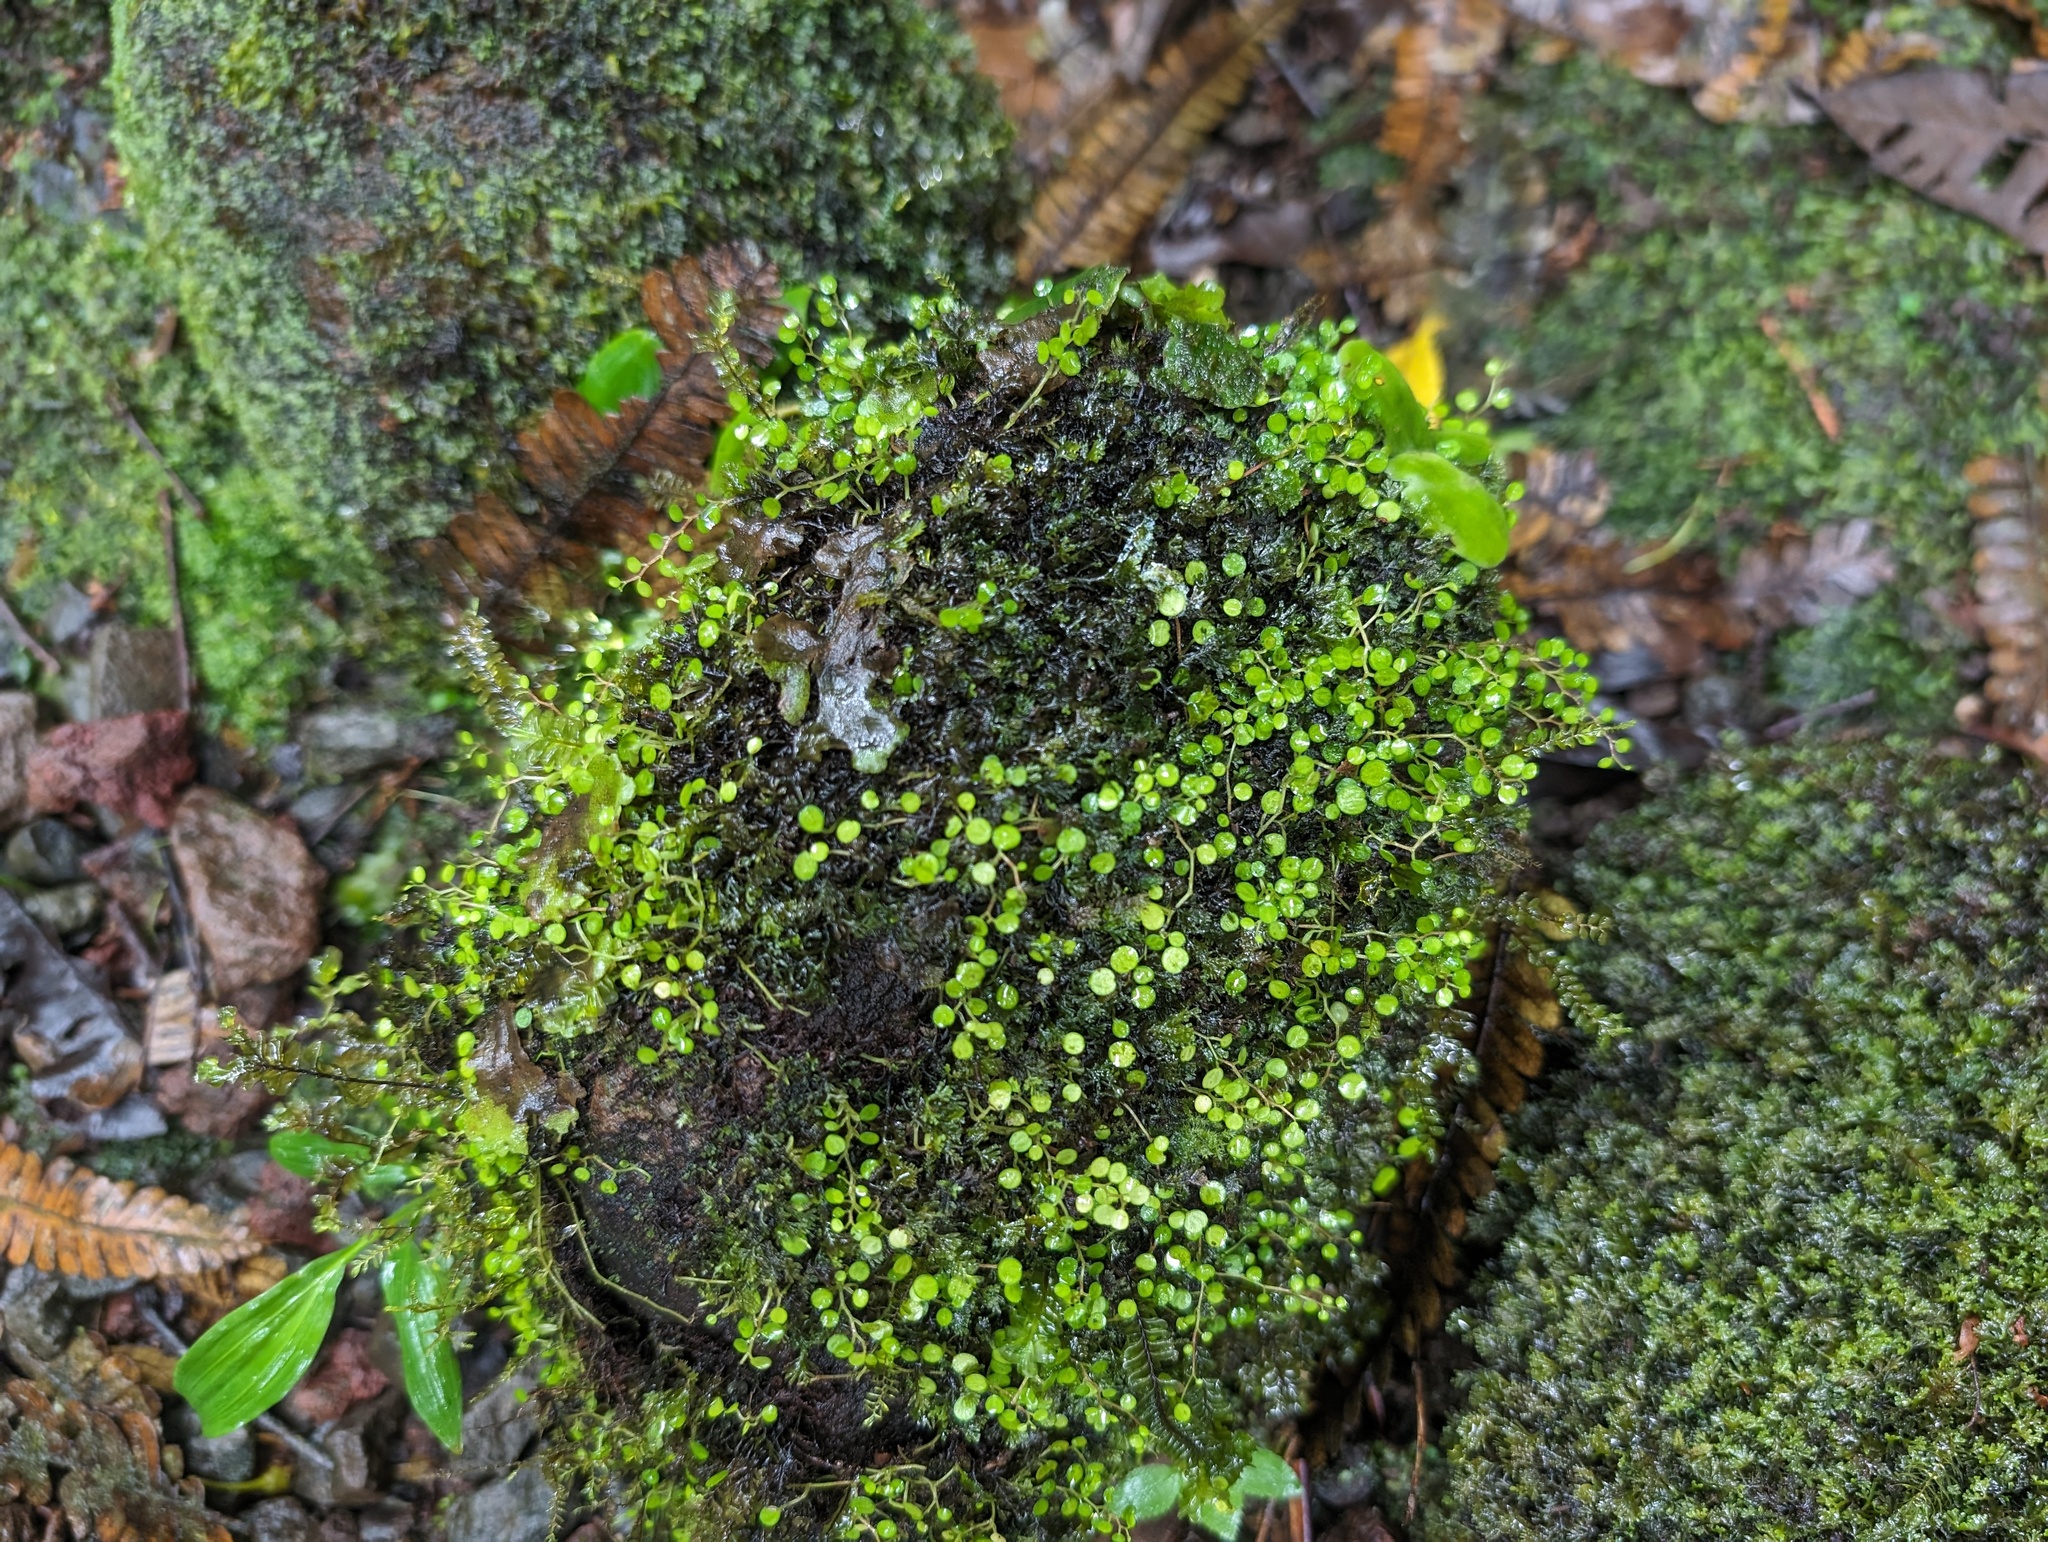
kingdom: Plantae
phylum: Tracheophyta
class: Magnoliopsida
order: Piperales
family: Piperaceae
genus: Peperomia
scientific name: Peperomia emarginella
